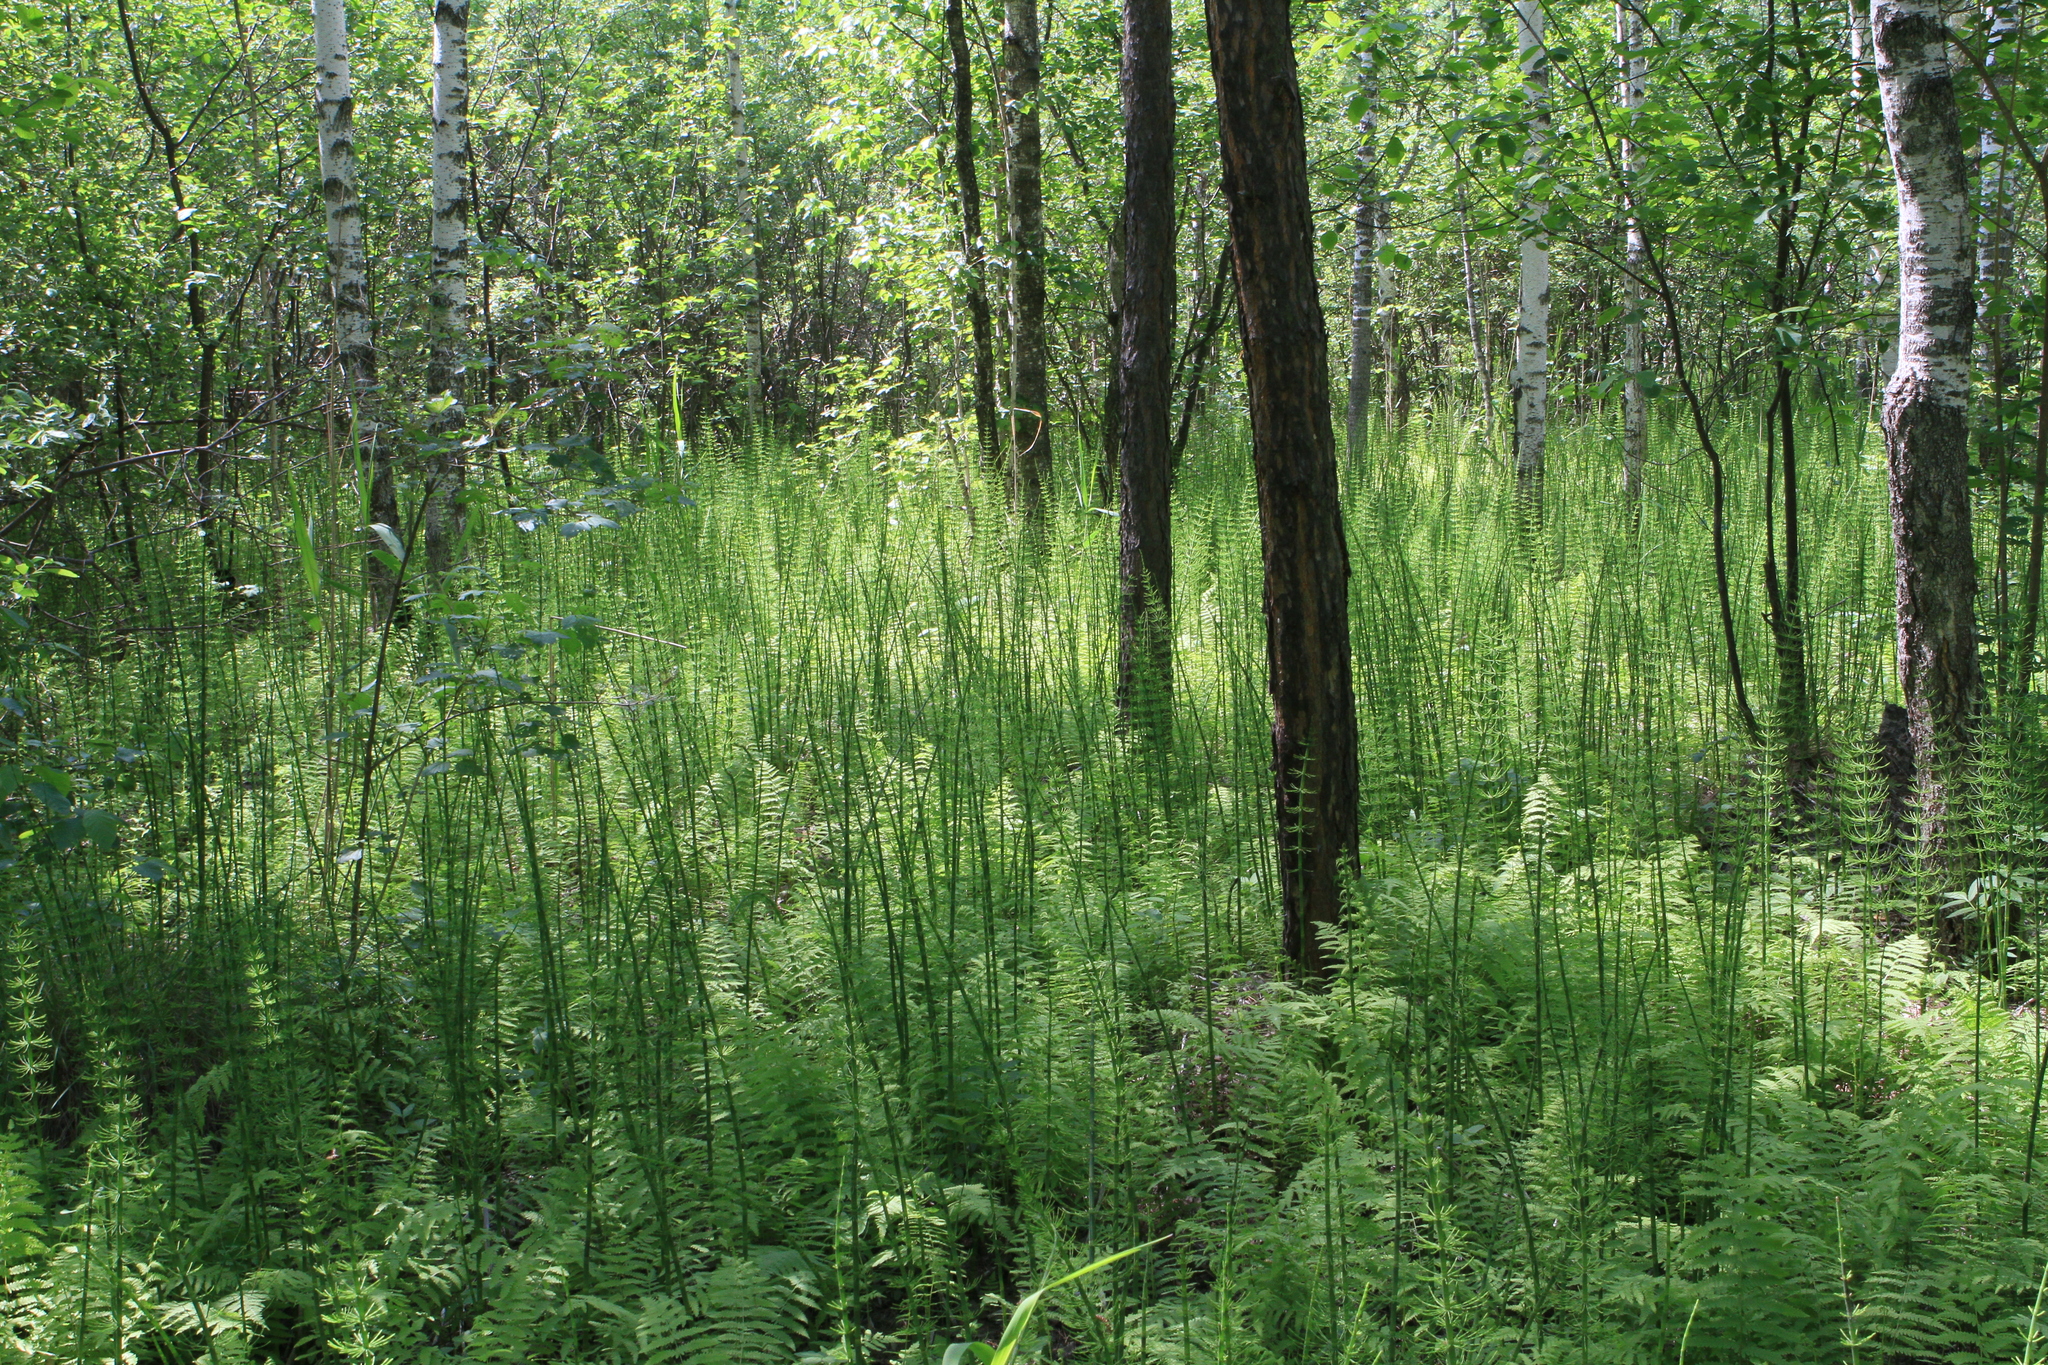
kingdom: Plantae
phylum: Tracheophyta
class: Polypodiopsida
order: Equisetales
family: Equisetaceae
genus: Equisetum
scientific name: Equisetum fluviatile
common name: Water horsetail
